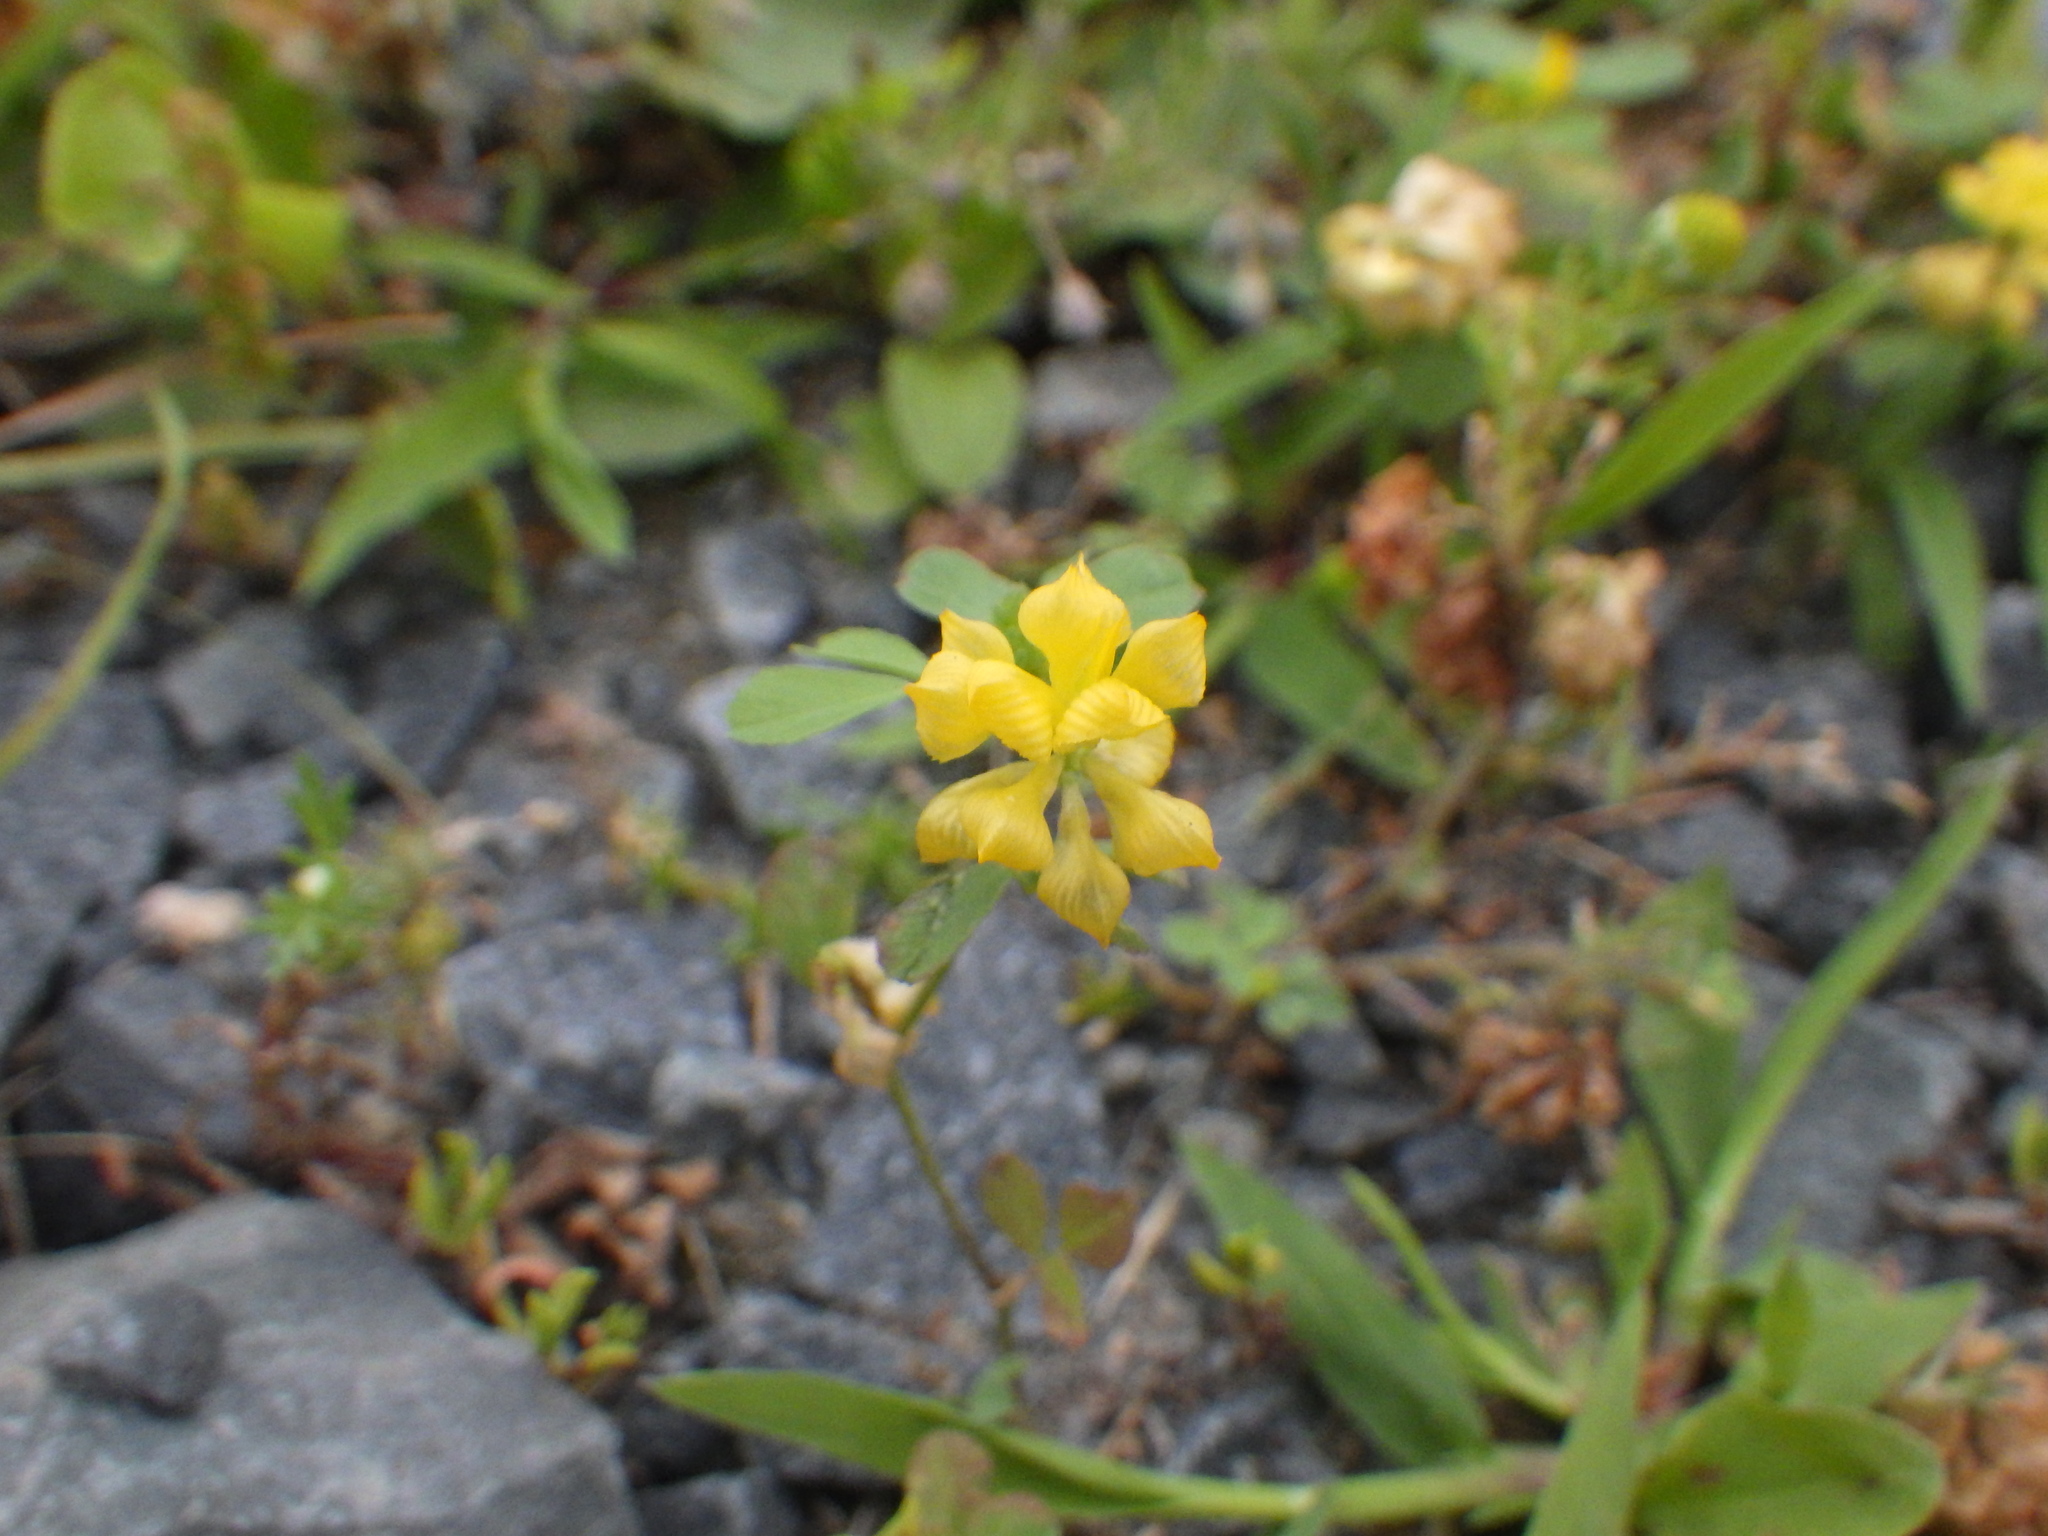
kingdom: Plantae
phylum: Tracheophyta
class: Magnoliopsida
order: Fabales
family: Fabaceae
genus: Trifolium
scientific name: Trifolium campestre
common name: Field clover
